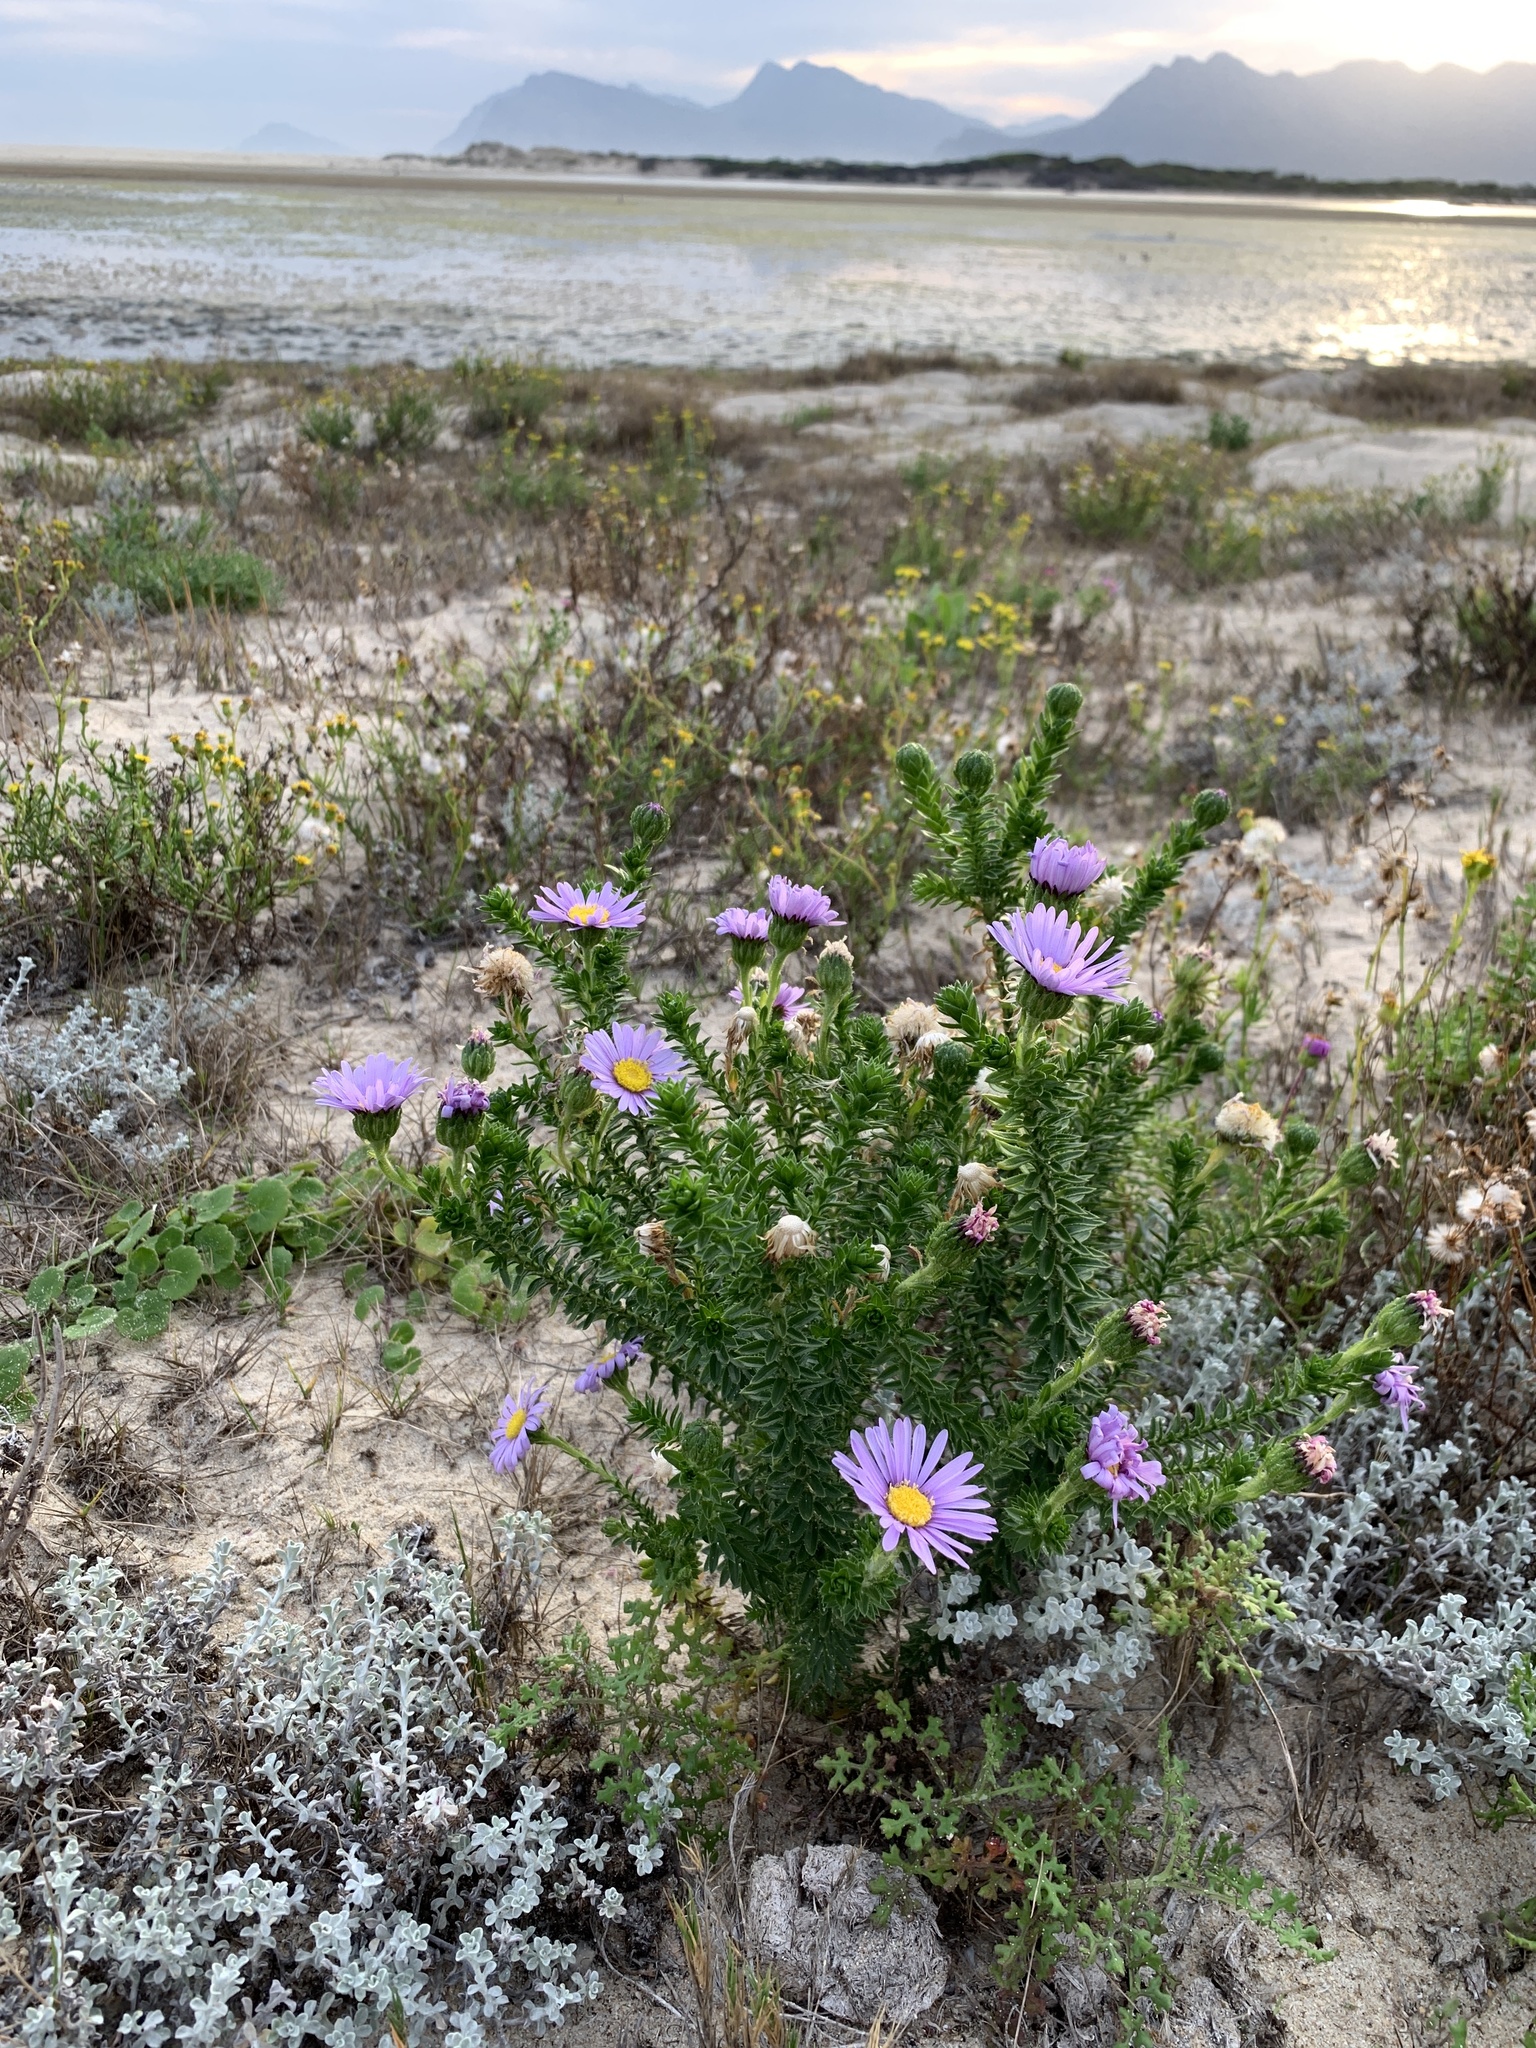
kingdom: Plantae
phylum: Tracheophyta
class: Magnoliopsida
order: Asterales
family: Asteraceae
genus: Felicia
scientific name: Felicia echinata
